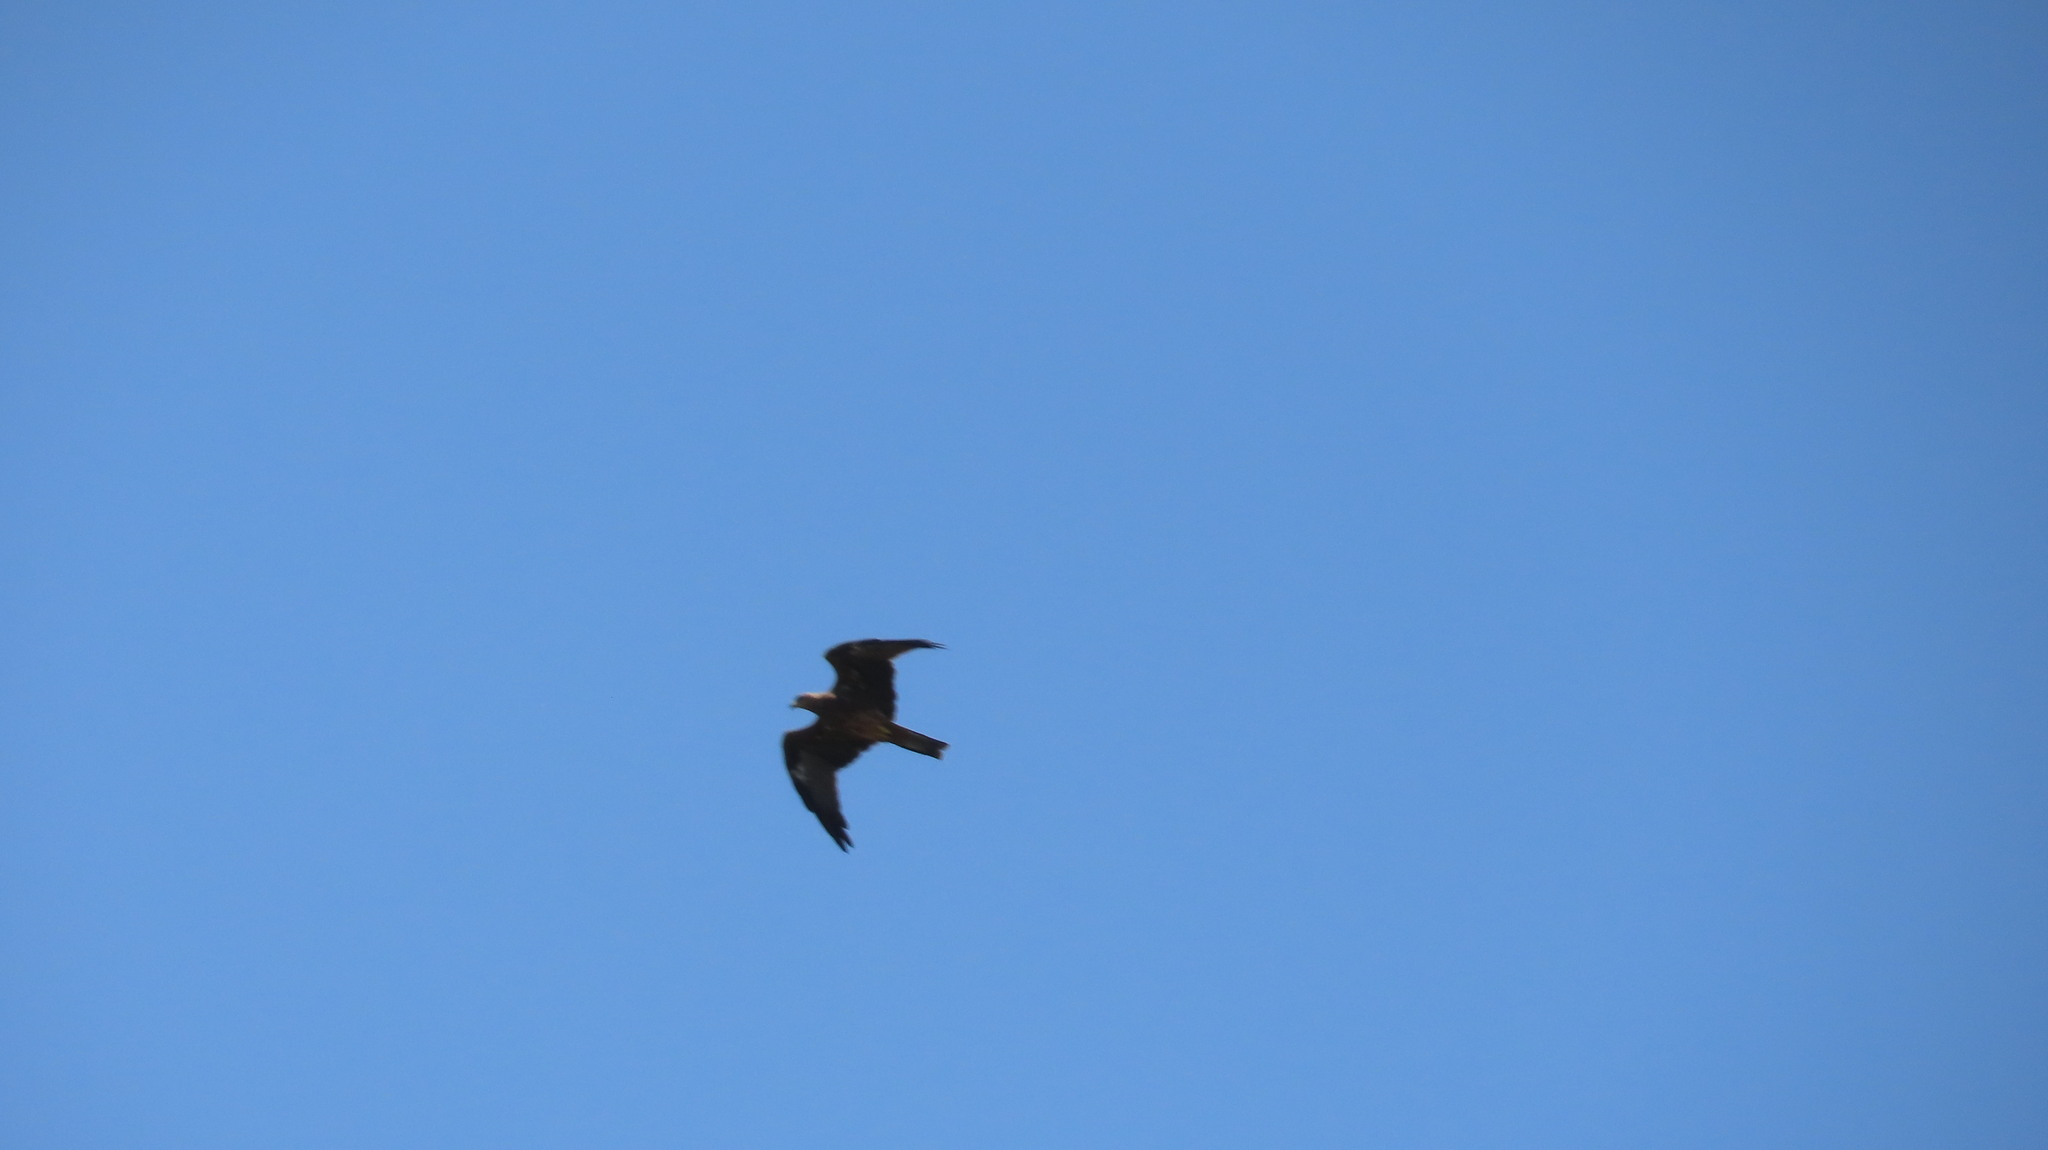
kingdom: Animalia
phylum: Chordata
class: Aves
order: Accipitriformes
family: Accipitridae
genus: Milvus
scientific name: Milvus migrans
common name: Black kite
